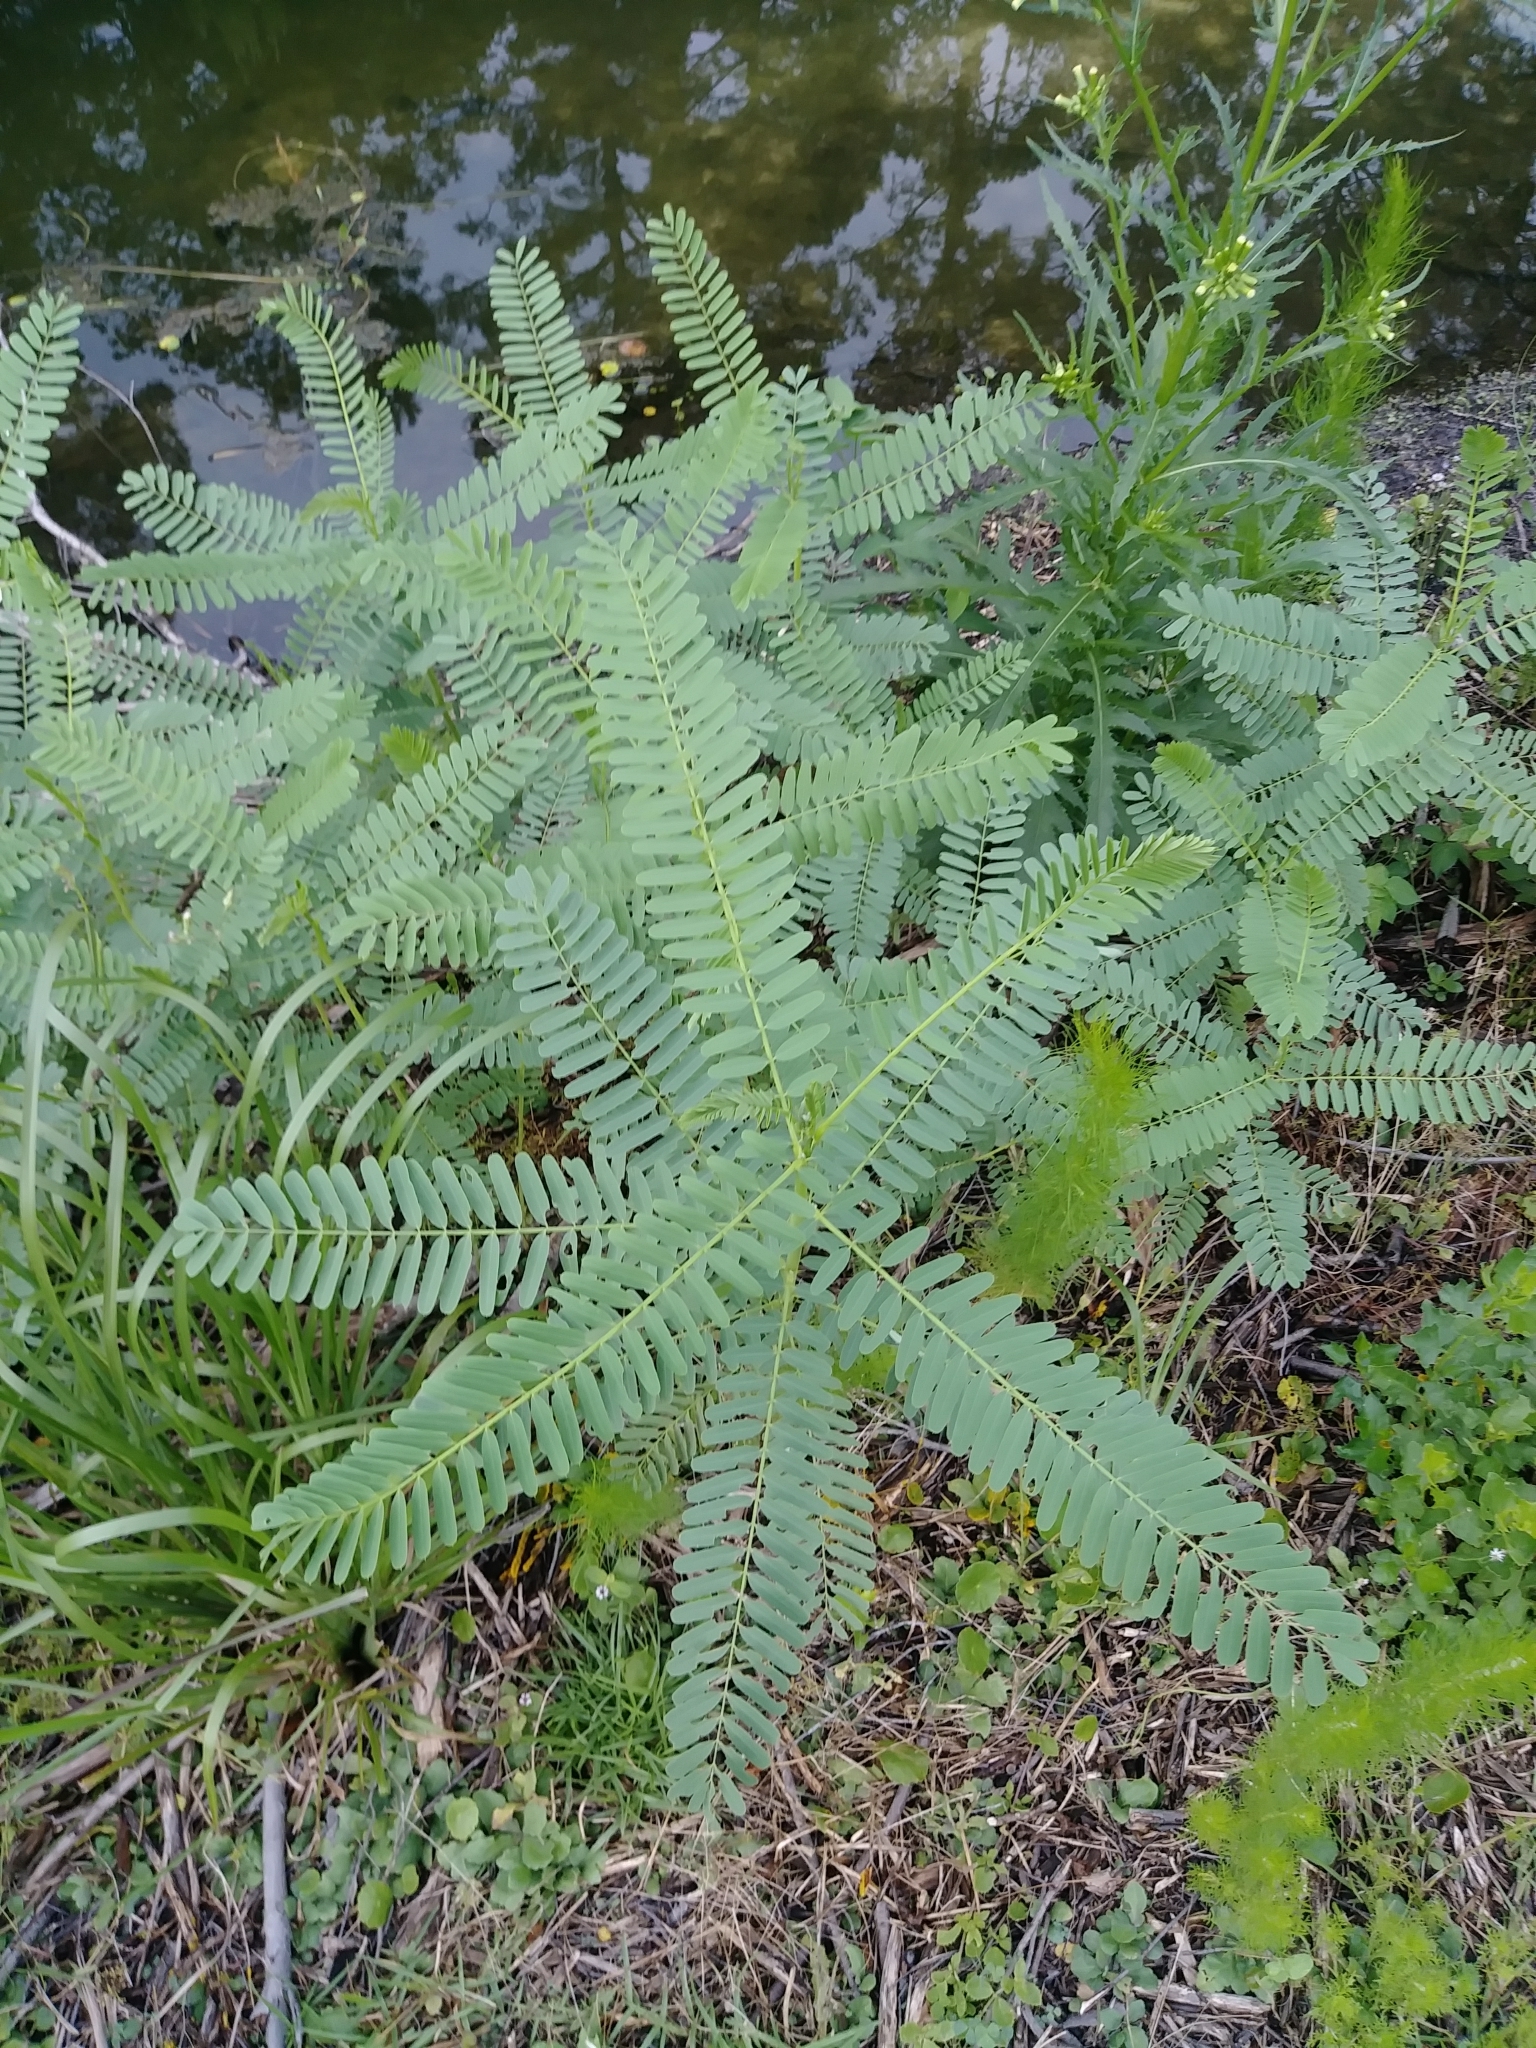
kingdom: Plantae
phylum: Tracheophyta
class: Magnoliopsida
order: Fabales
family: Fabaceae
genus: Sesbania
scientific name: Sesbania herbacea
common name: Bigpod sesbania
